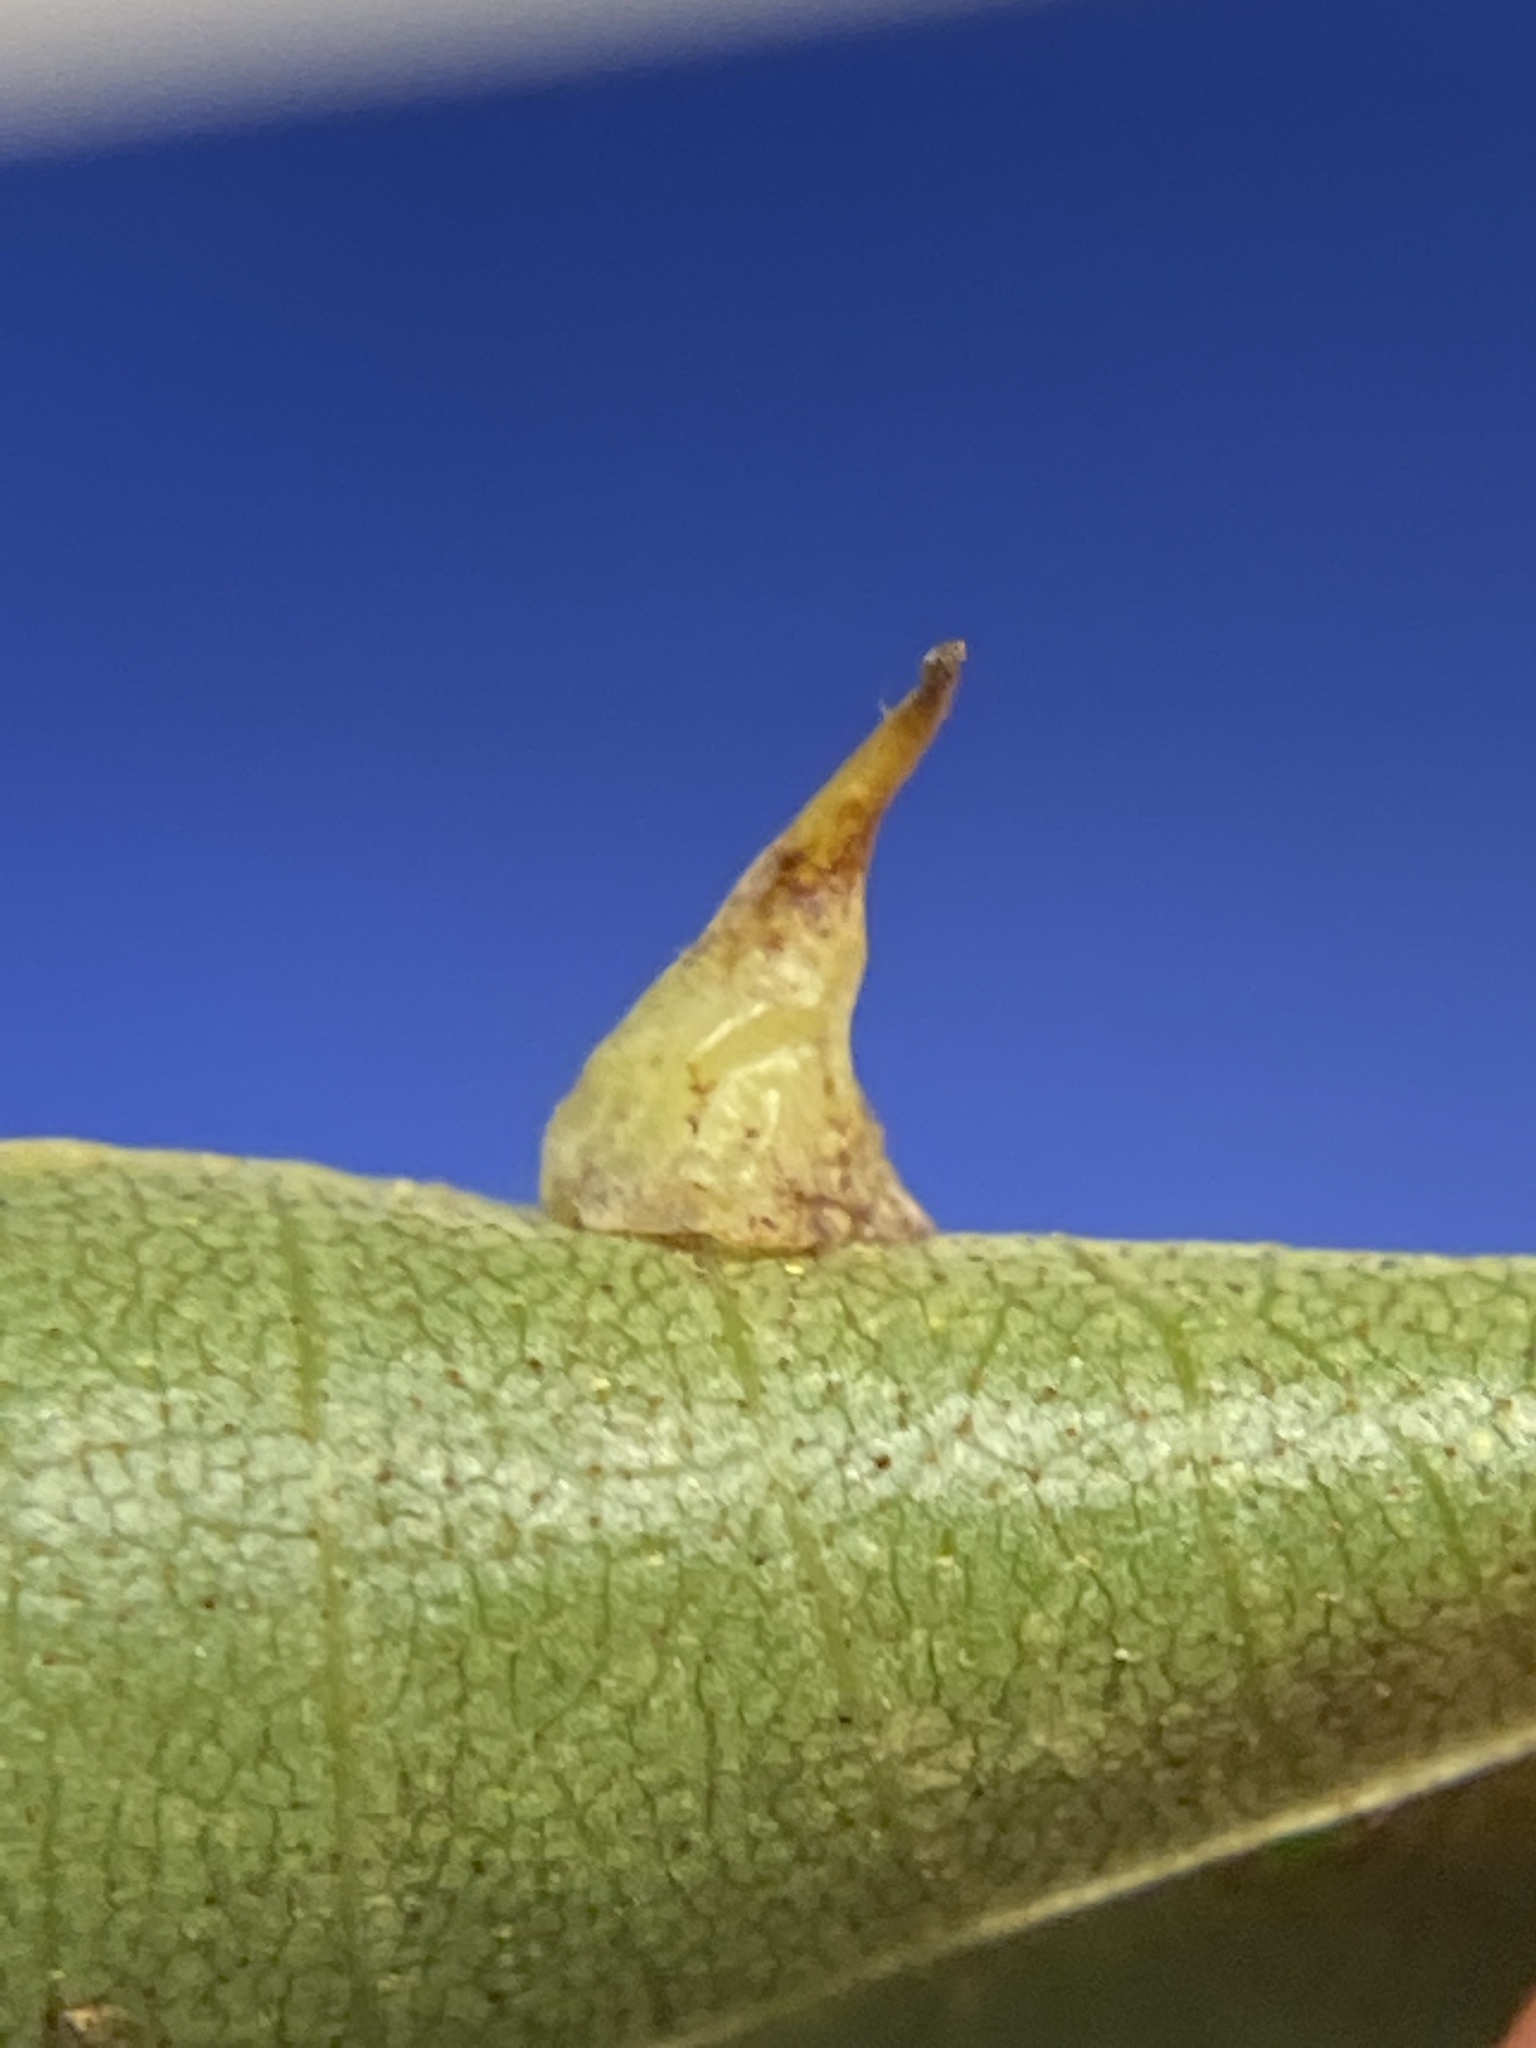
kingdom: Animalia
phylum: Arthropoda
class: Insecta
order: Diptera
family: Cecidomyiidae
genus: Caryomyia
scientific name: Caryomyia stellata
